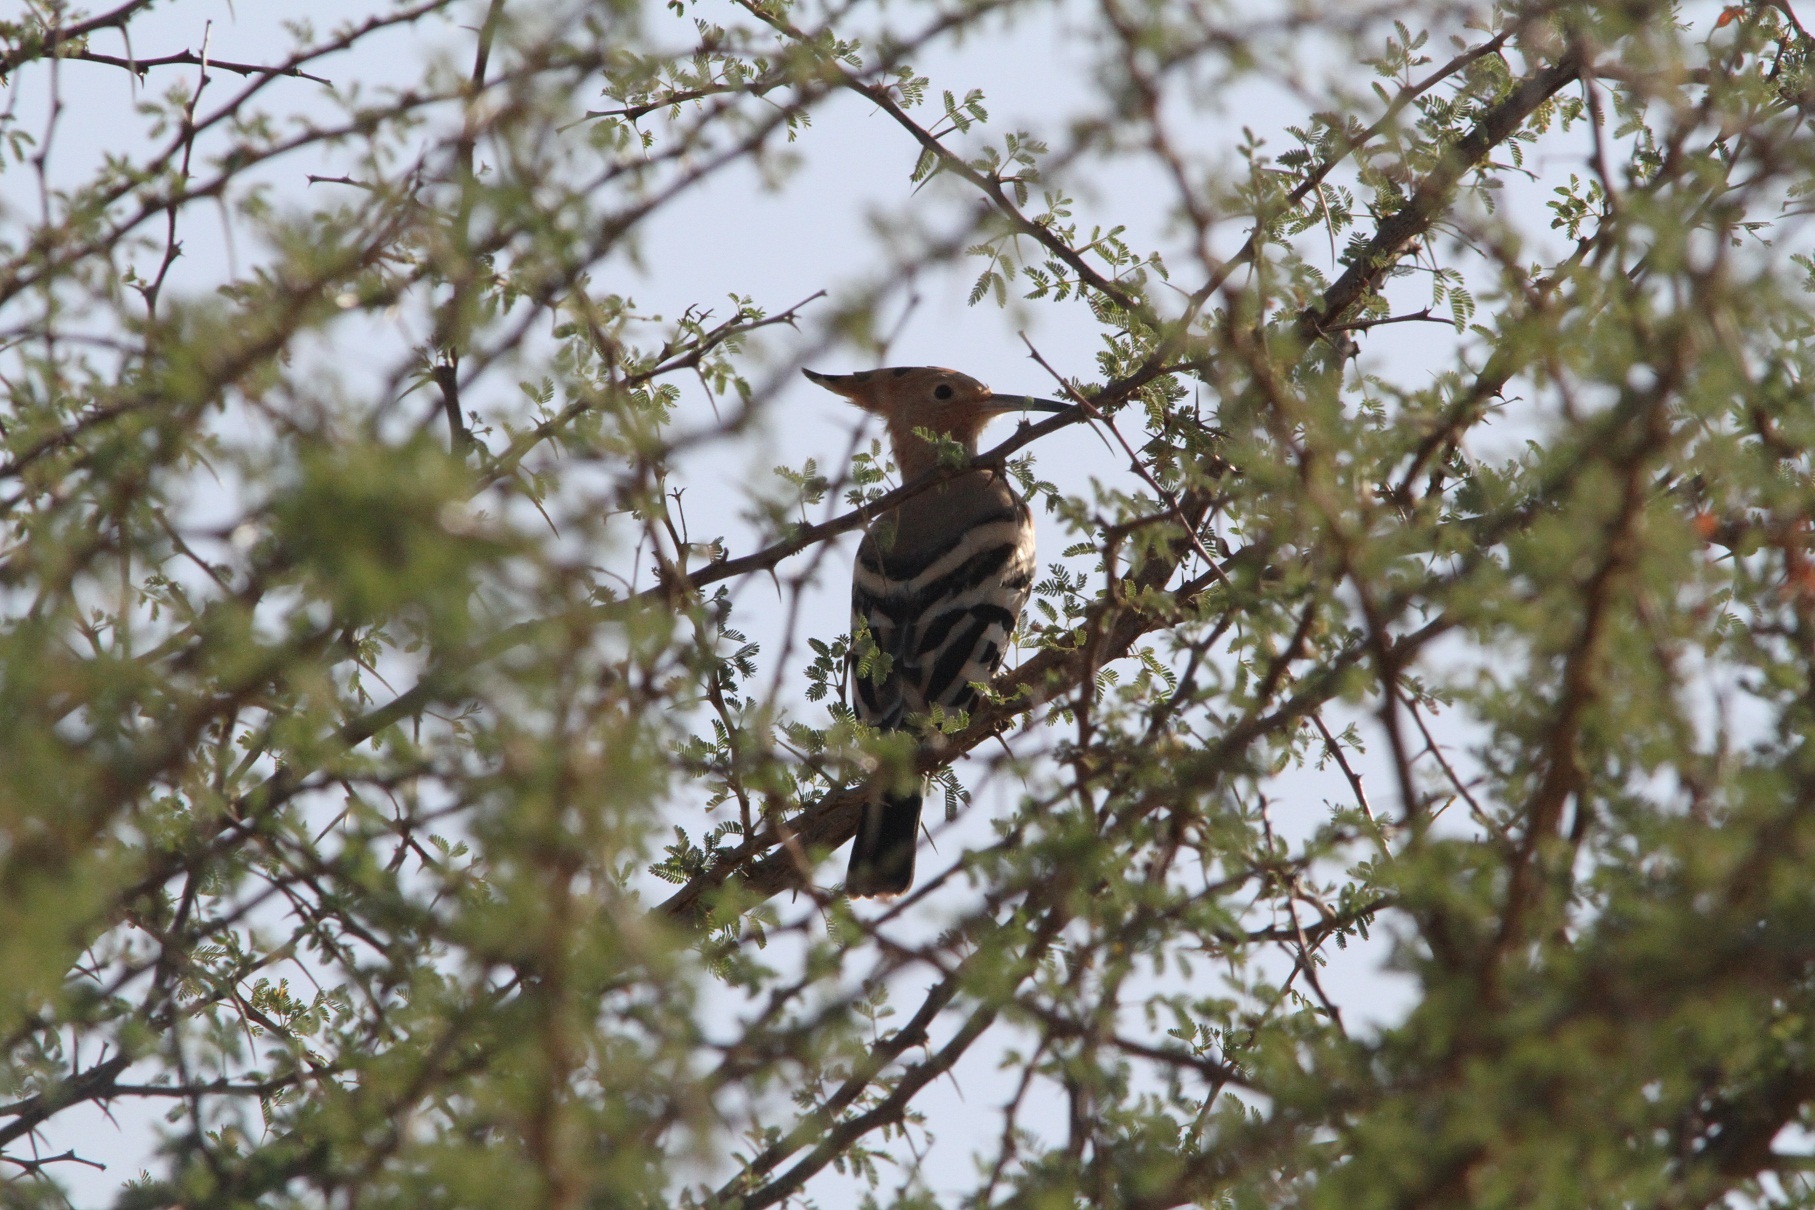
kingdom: Animalia
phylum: Chordata
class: Aves
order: Bucerotiformes
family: Upupidae
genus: Upupa
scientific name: Upupa epops
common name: Eurasian hoopoe
